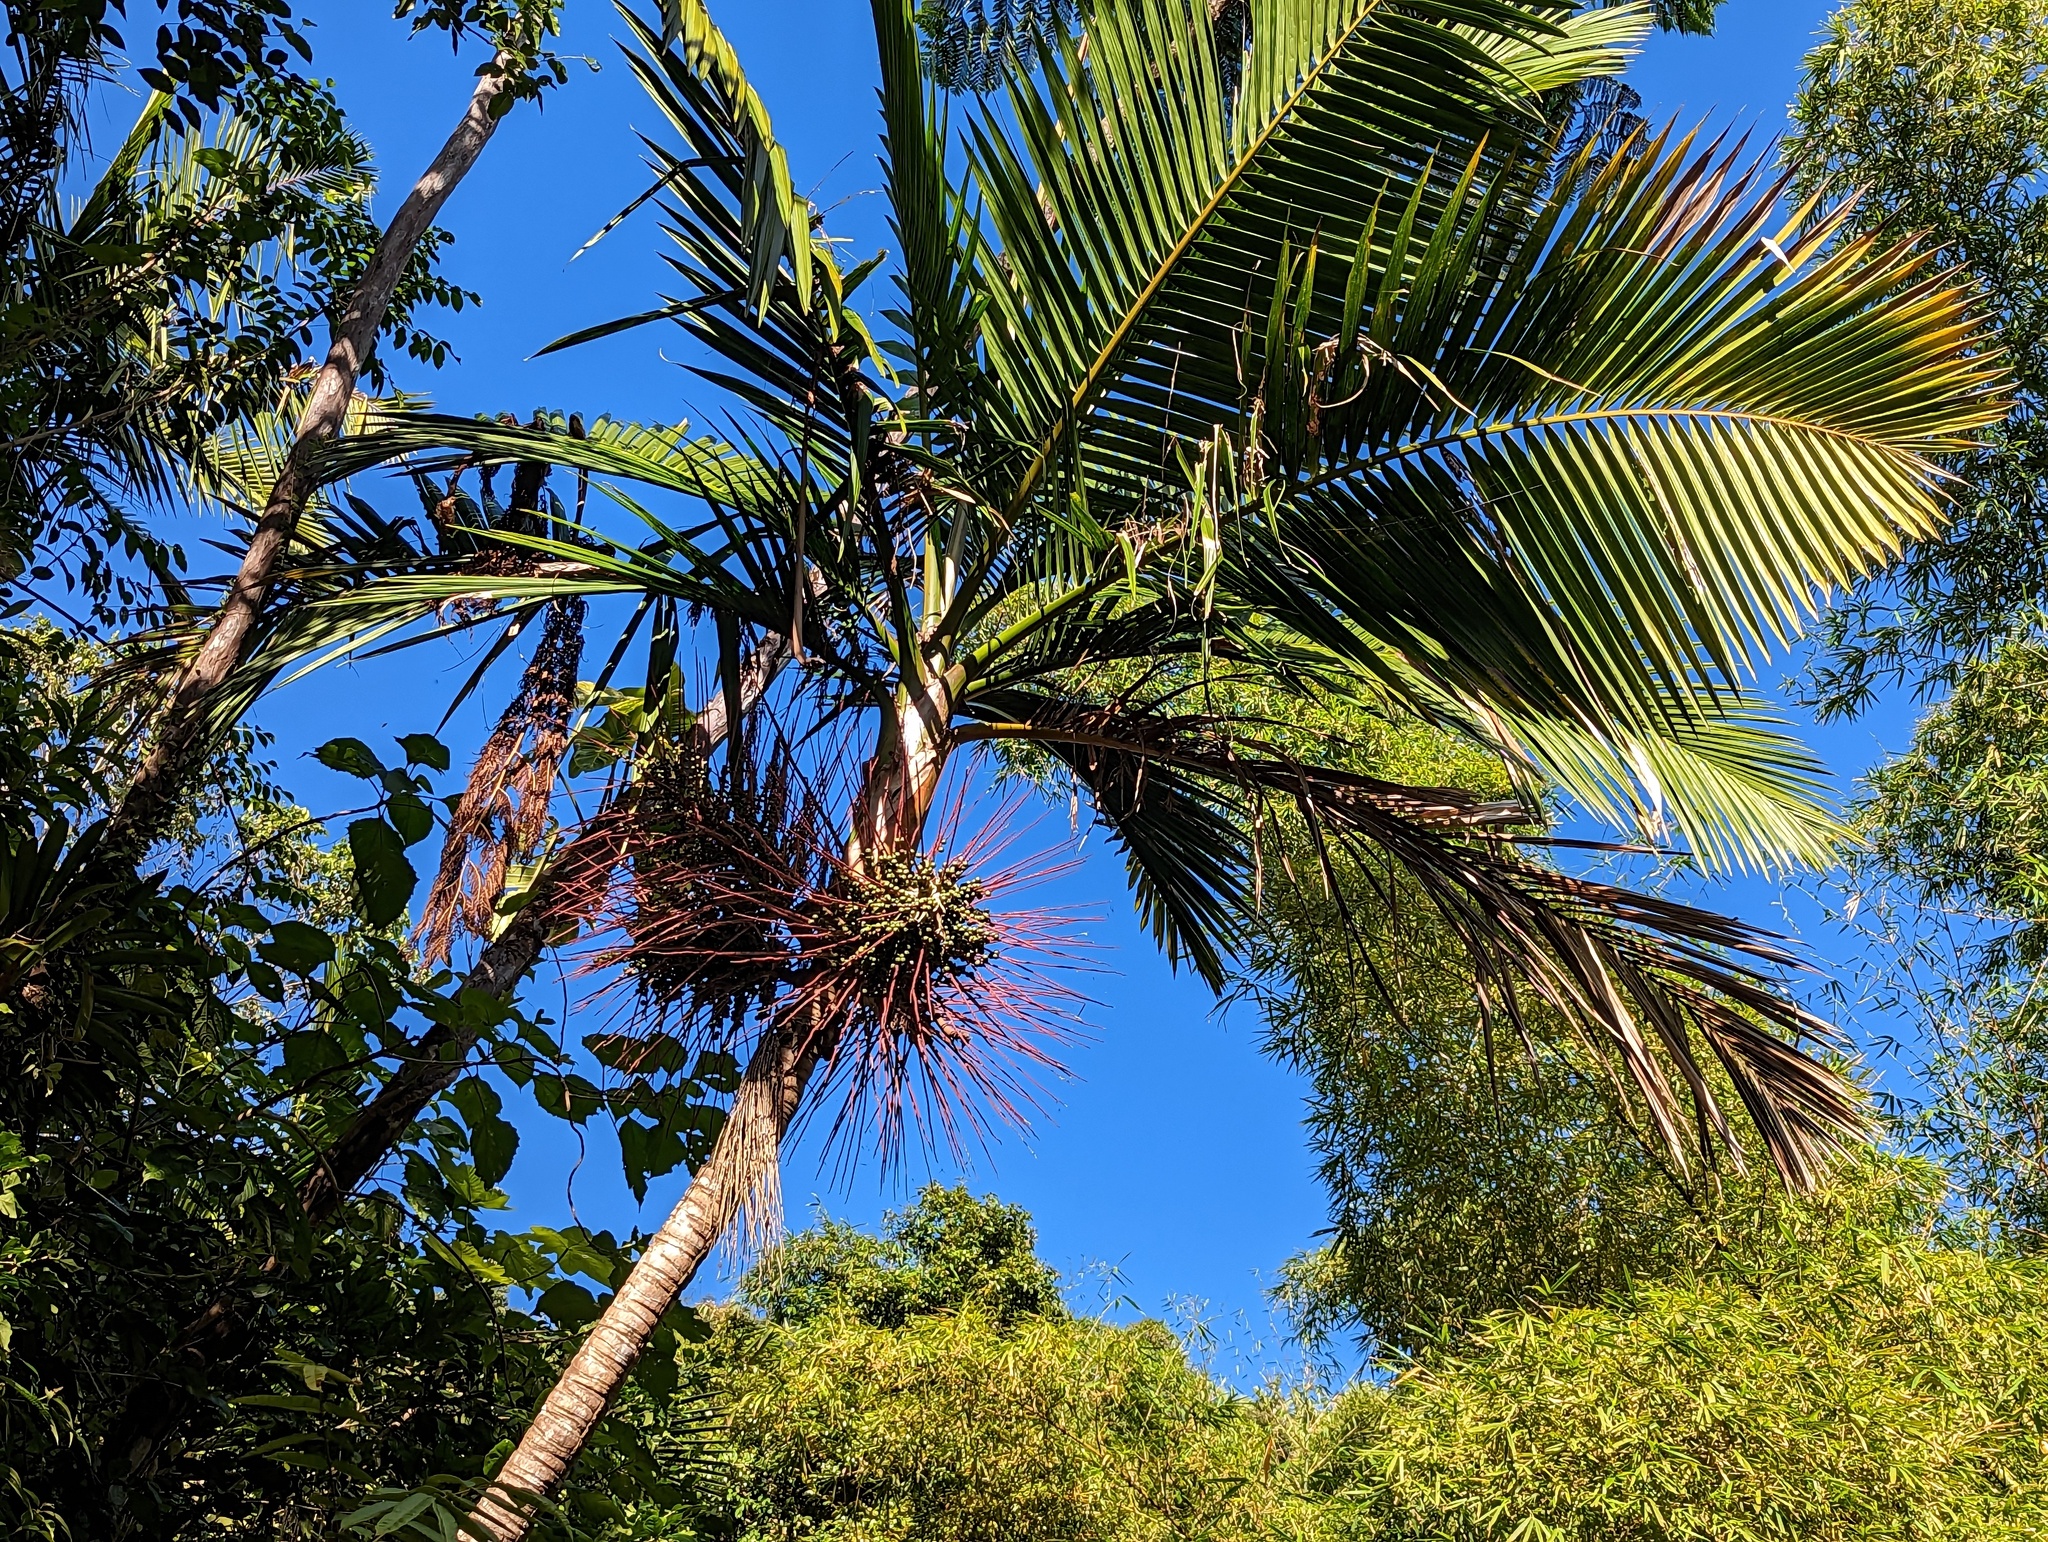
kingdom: Plantae
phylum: Tracheophyta
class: Liliopsida
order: Arecales
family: Arecaceae
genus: Prestoea
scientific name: Prestoea acuminata
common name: Sierran palm
